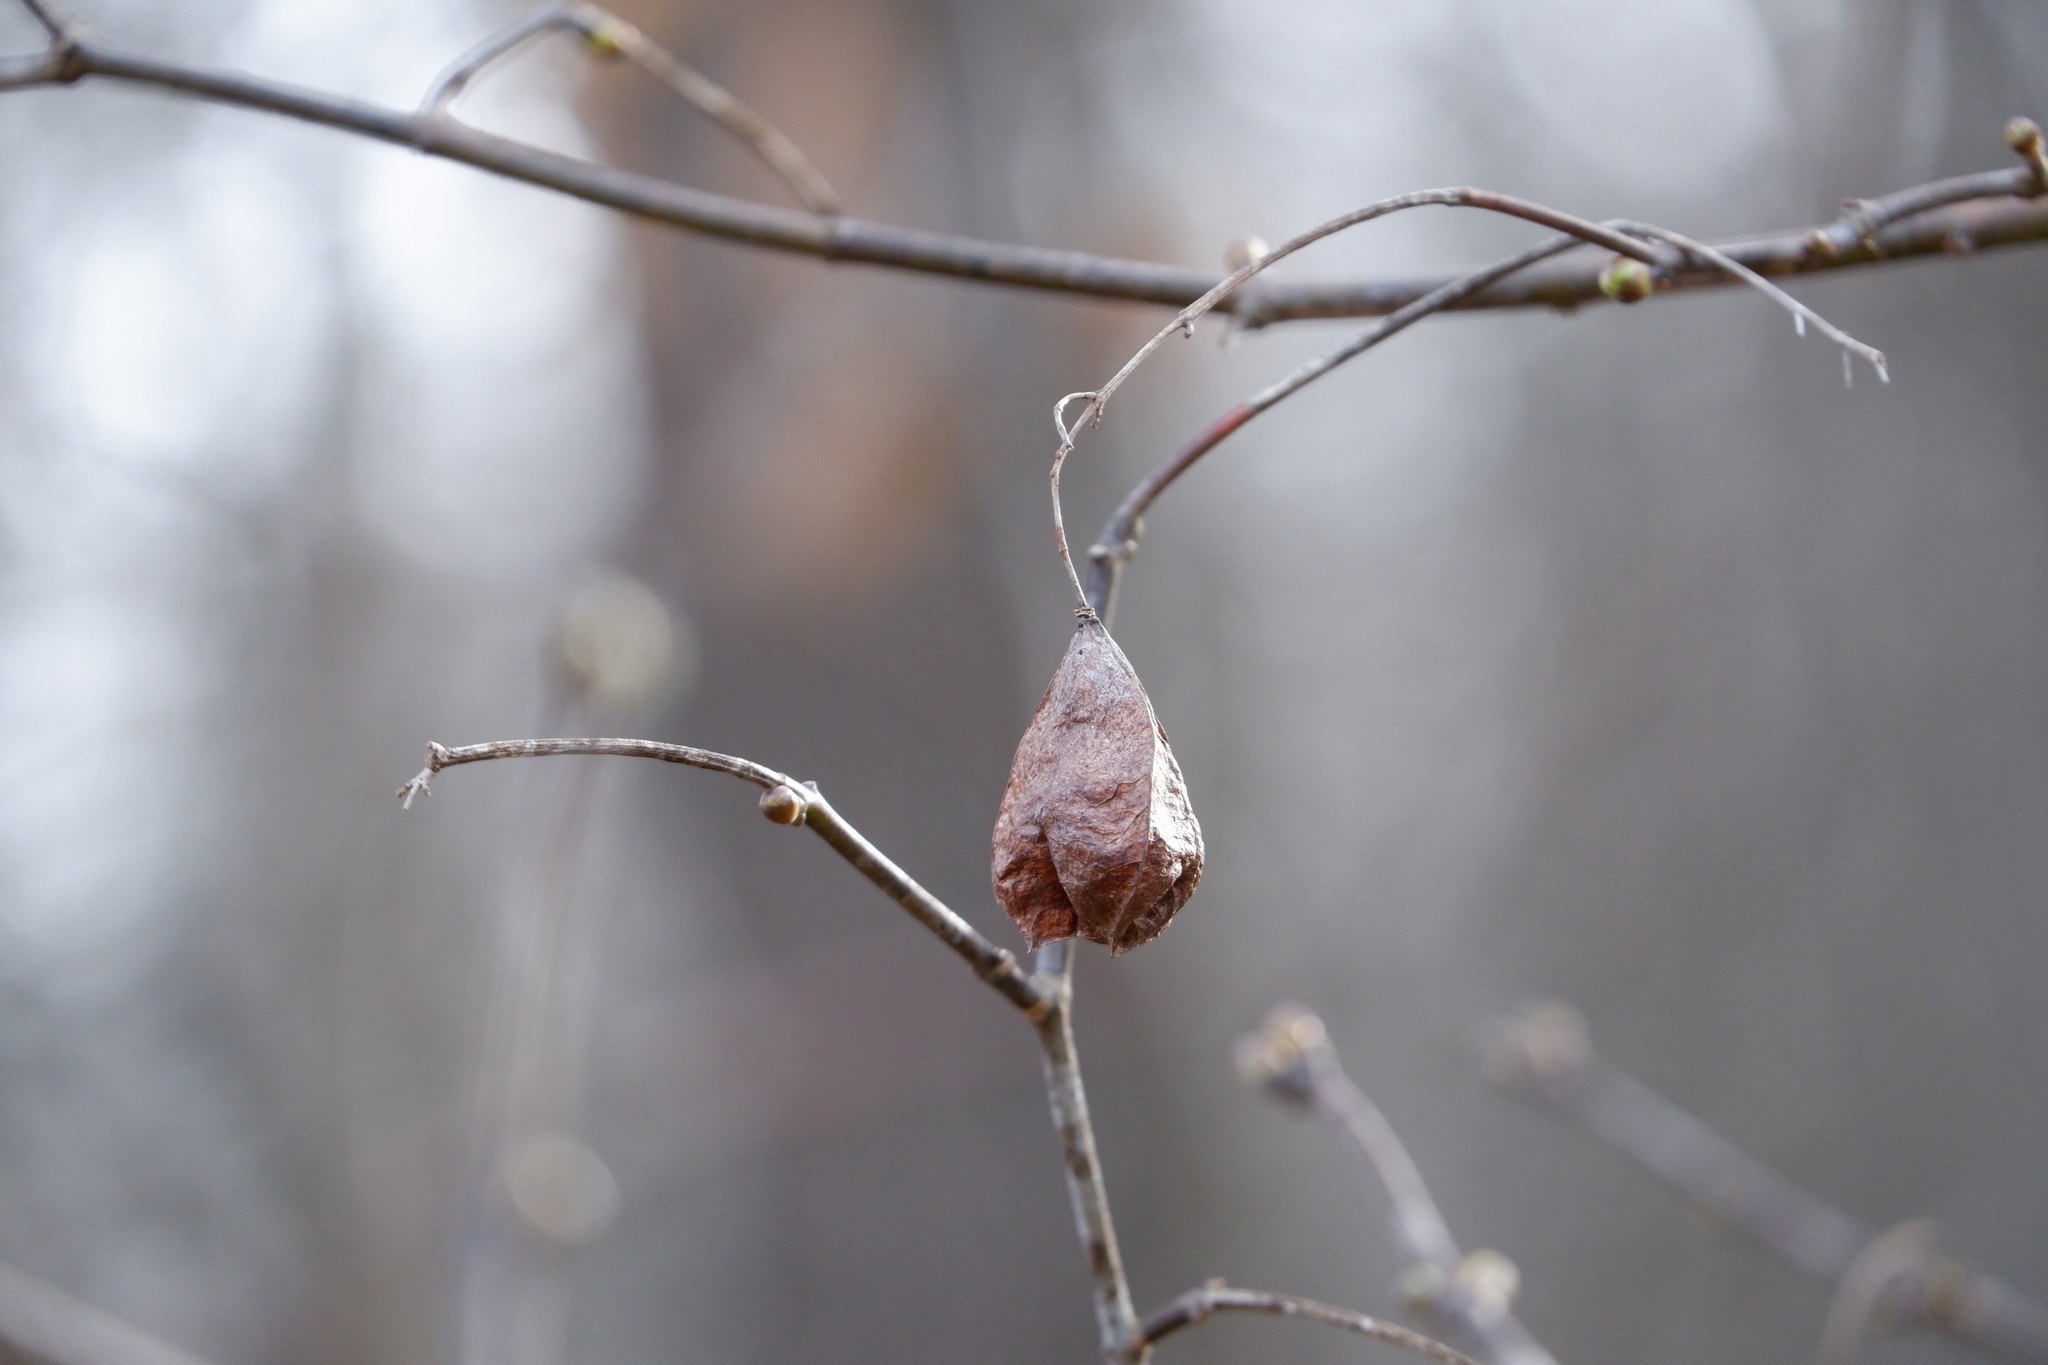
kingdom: Plantae
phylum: Tracheophyta
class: Magnoliopsida
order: Crossosomatales
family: Staphyleaceae
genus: Staphylea
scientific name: Staphylea trifolia
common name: American bladdernut
